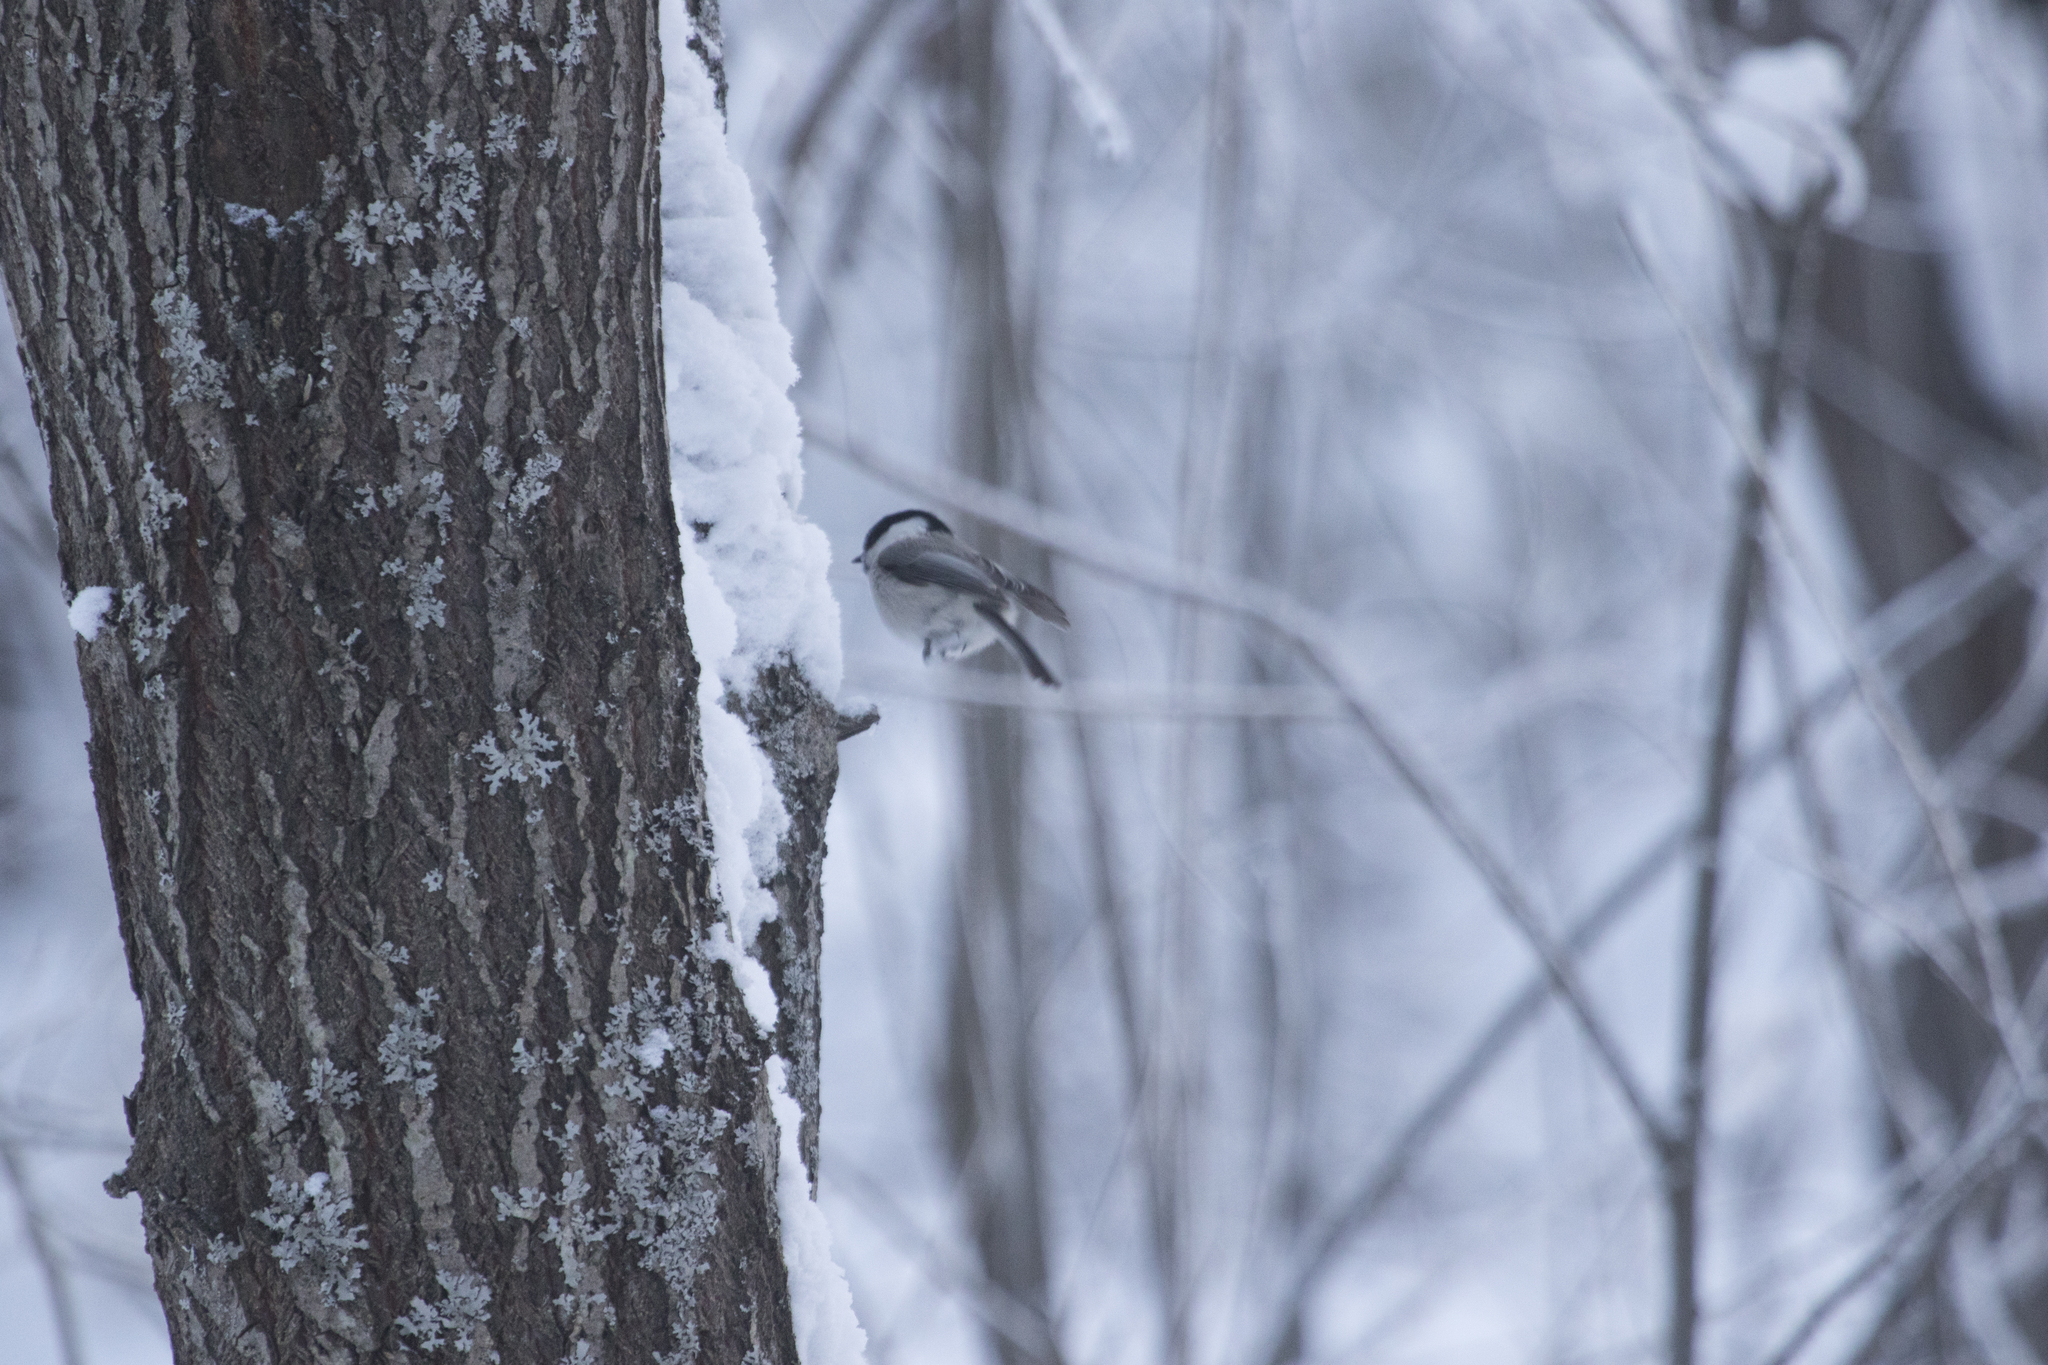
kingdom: Animalia
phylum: Chordata
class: Aves
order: Passeriformes
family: Paridae
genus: Poecile
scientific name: Poecile montanus
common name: Willow tit
